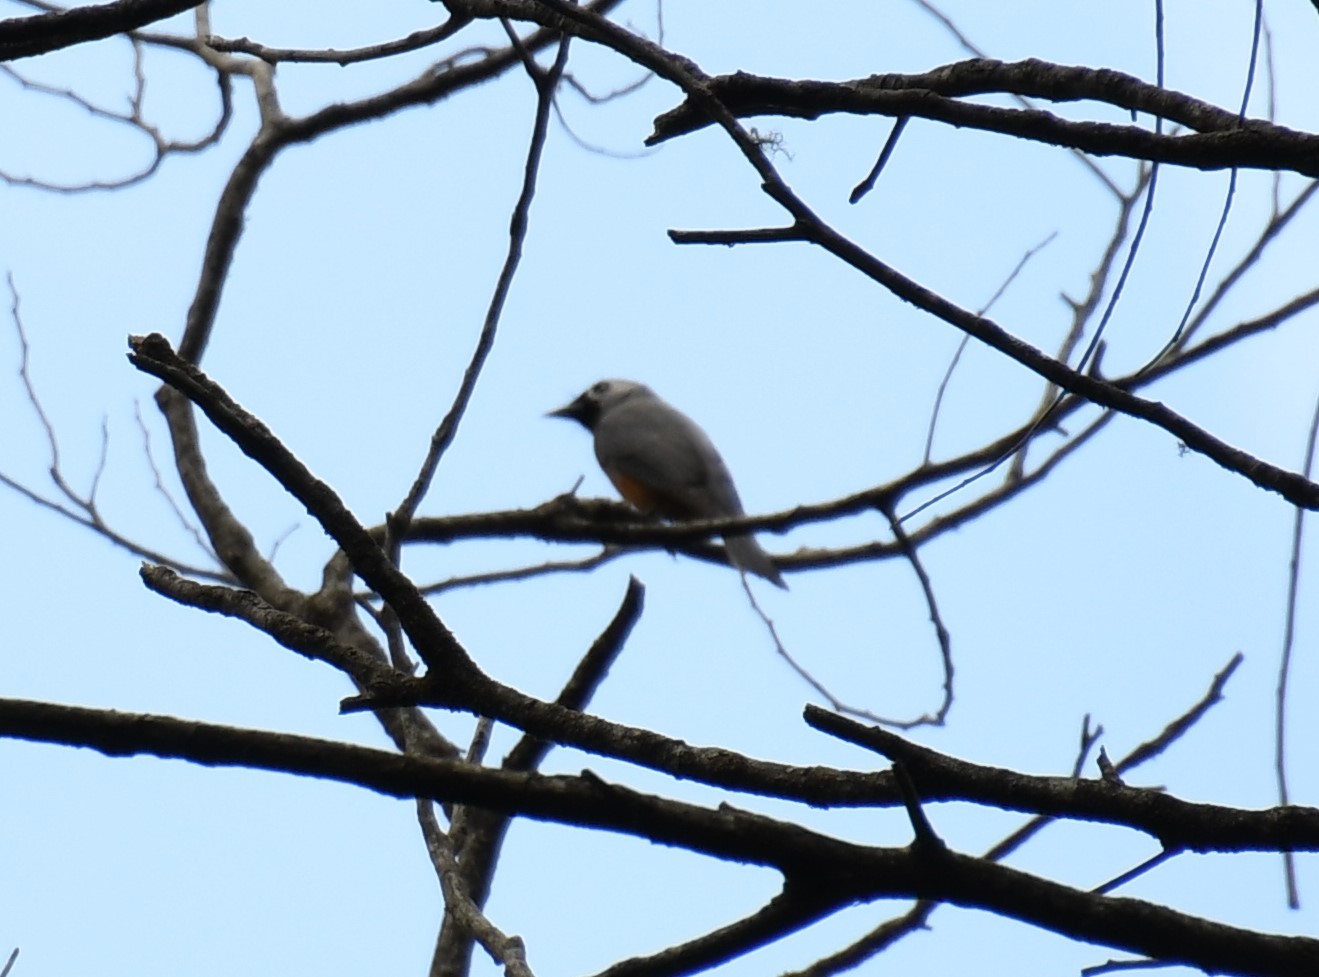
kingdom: Animalia
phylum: Chordata
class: Aves
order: Passeriformes
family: Monarchidae
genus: Monarcha
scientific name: Monarcha melanopsis
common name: Black-faced monarch
